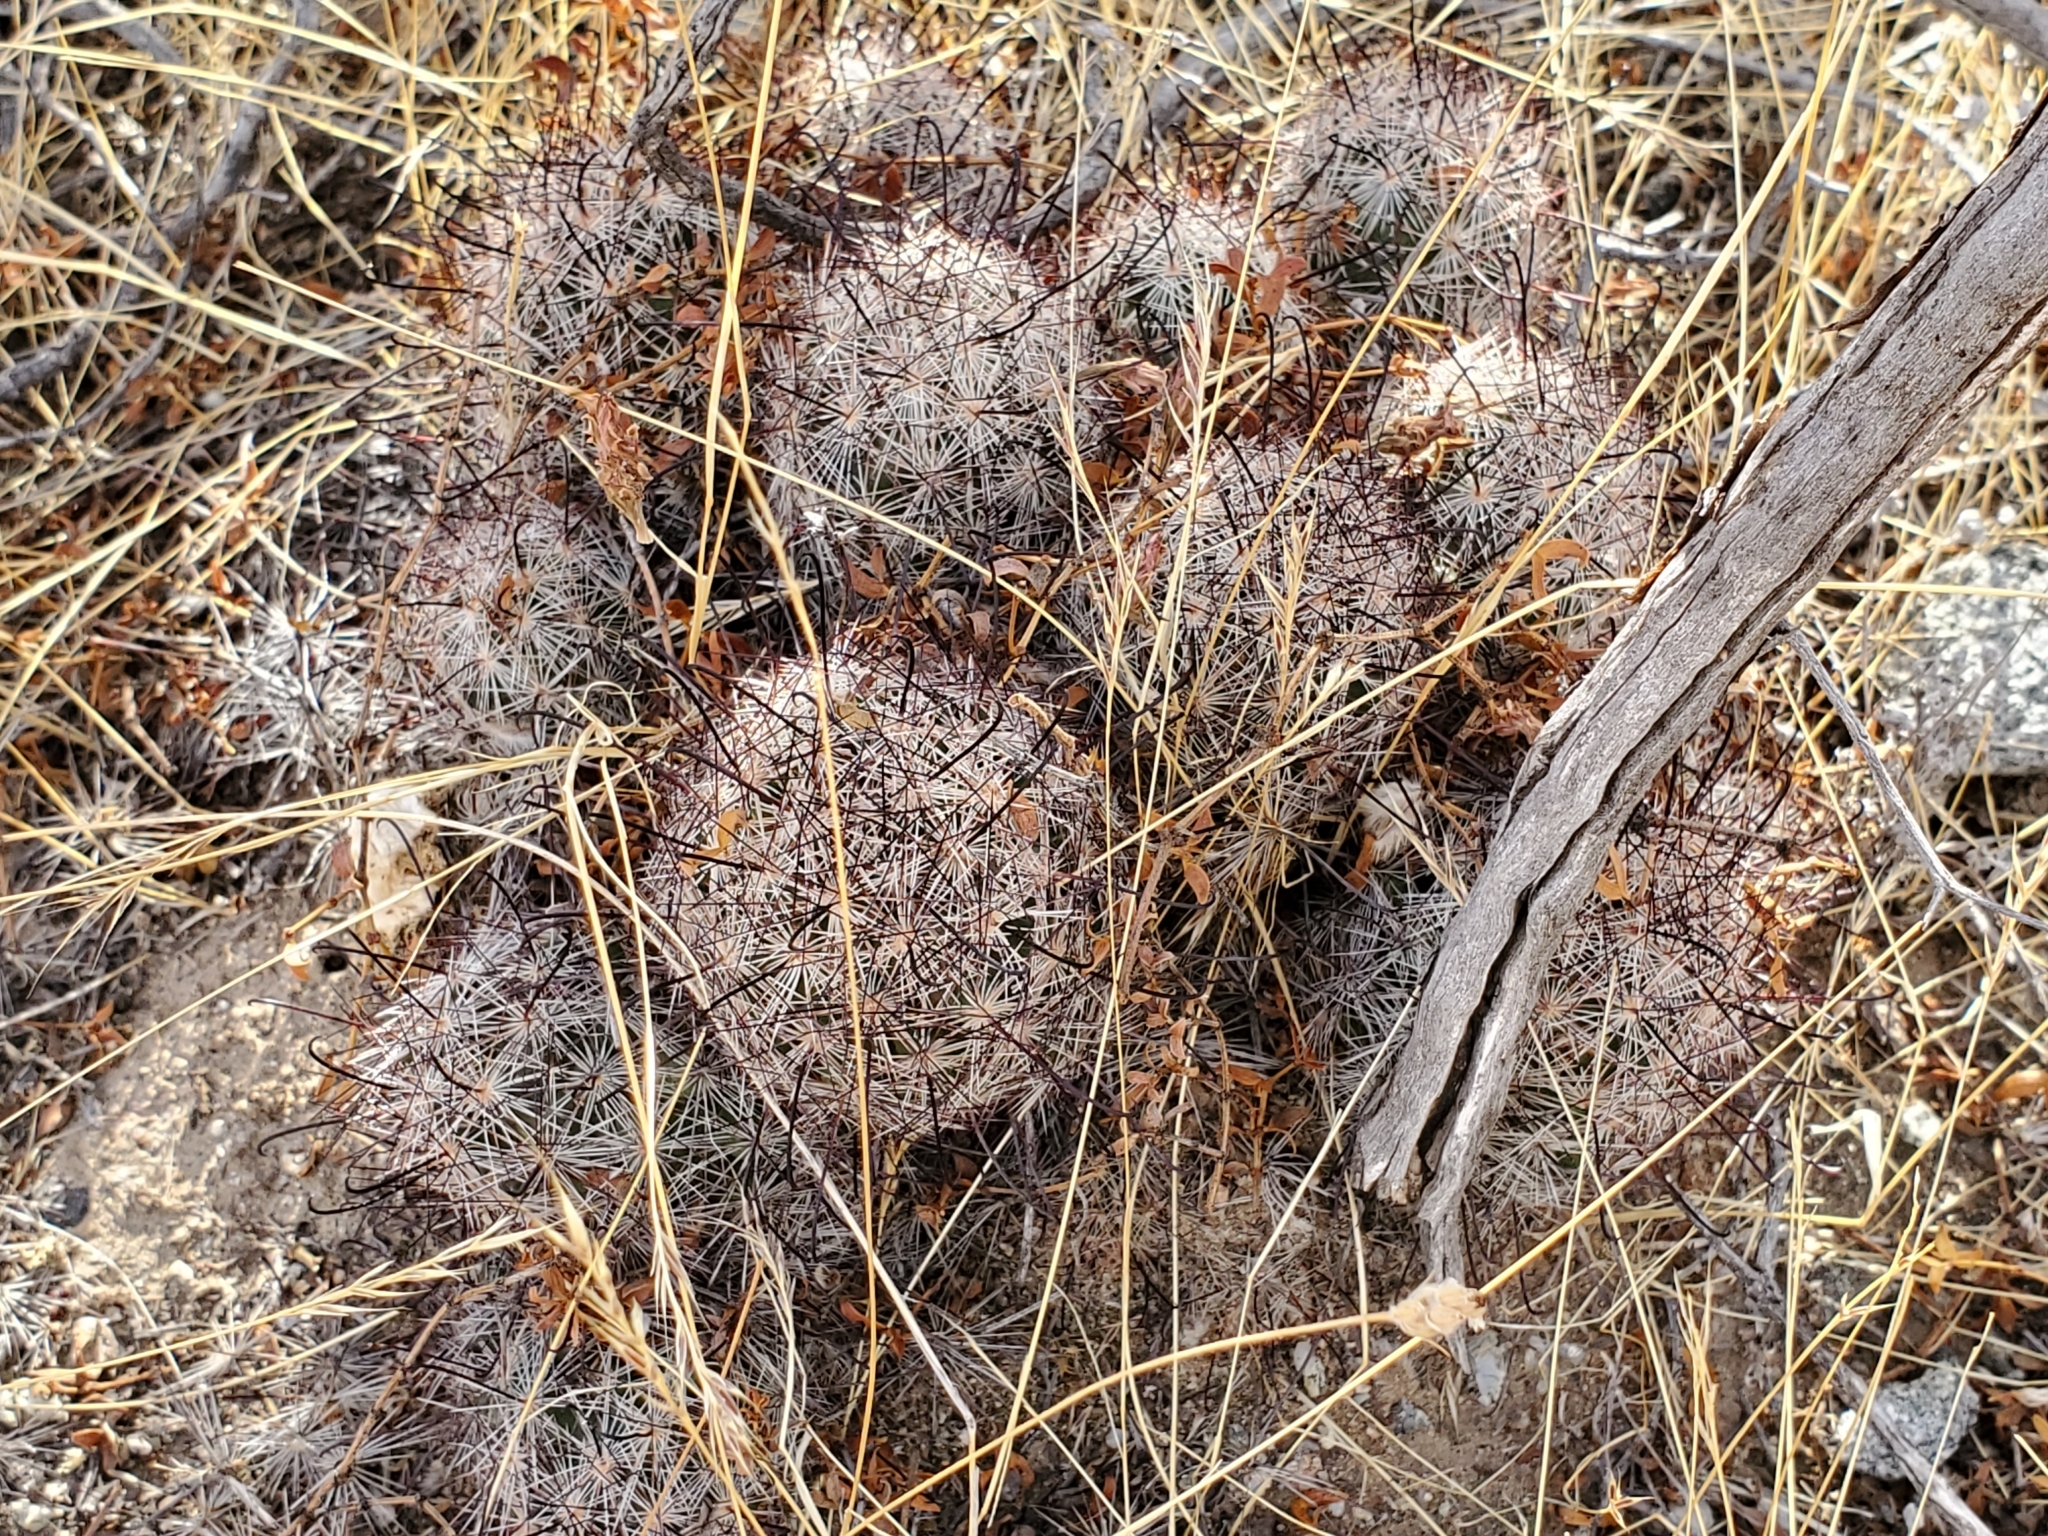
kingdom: Plantae
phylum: Tracheophyta
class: Magnoliopsida
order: Caryophyllales
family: Cactaceae
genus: Cochemiea
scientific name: Cochemiea tetrancistra
